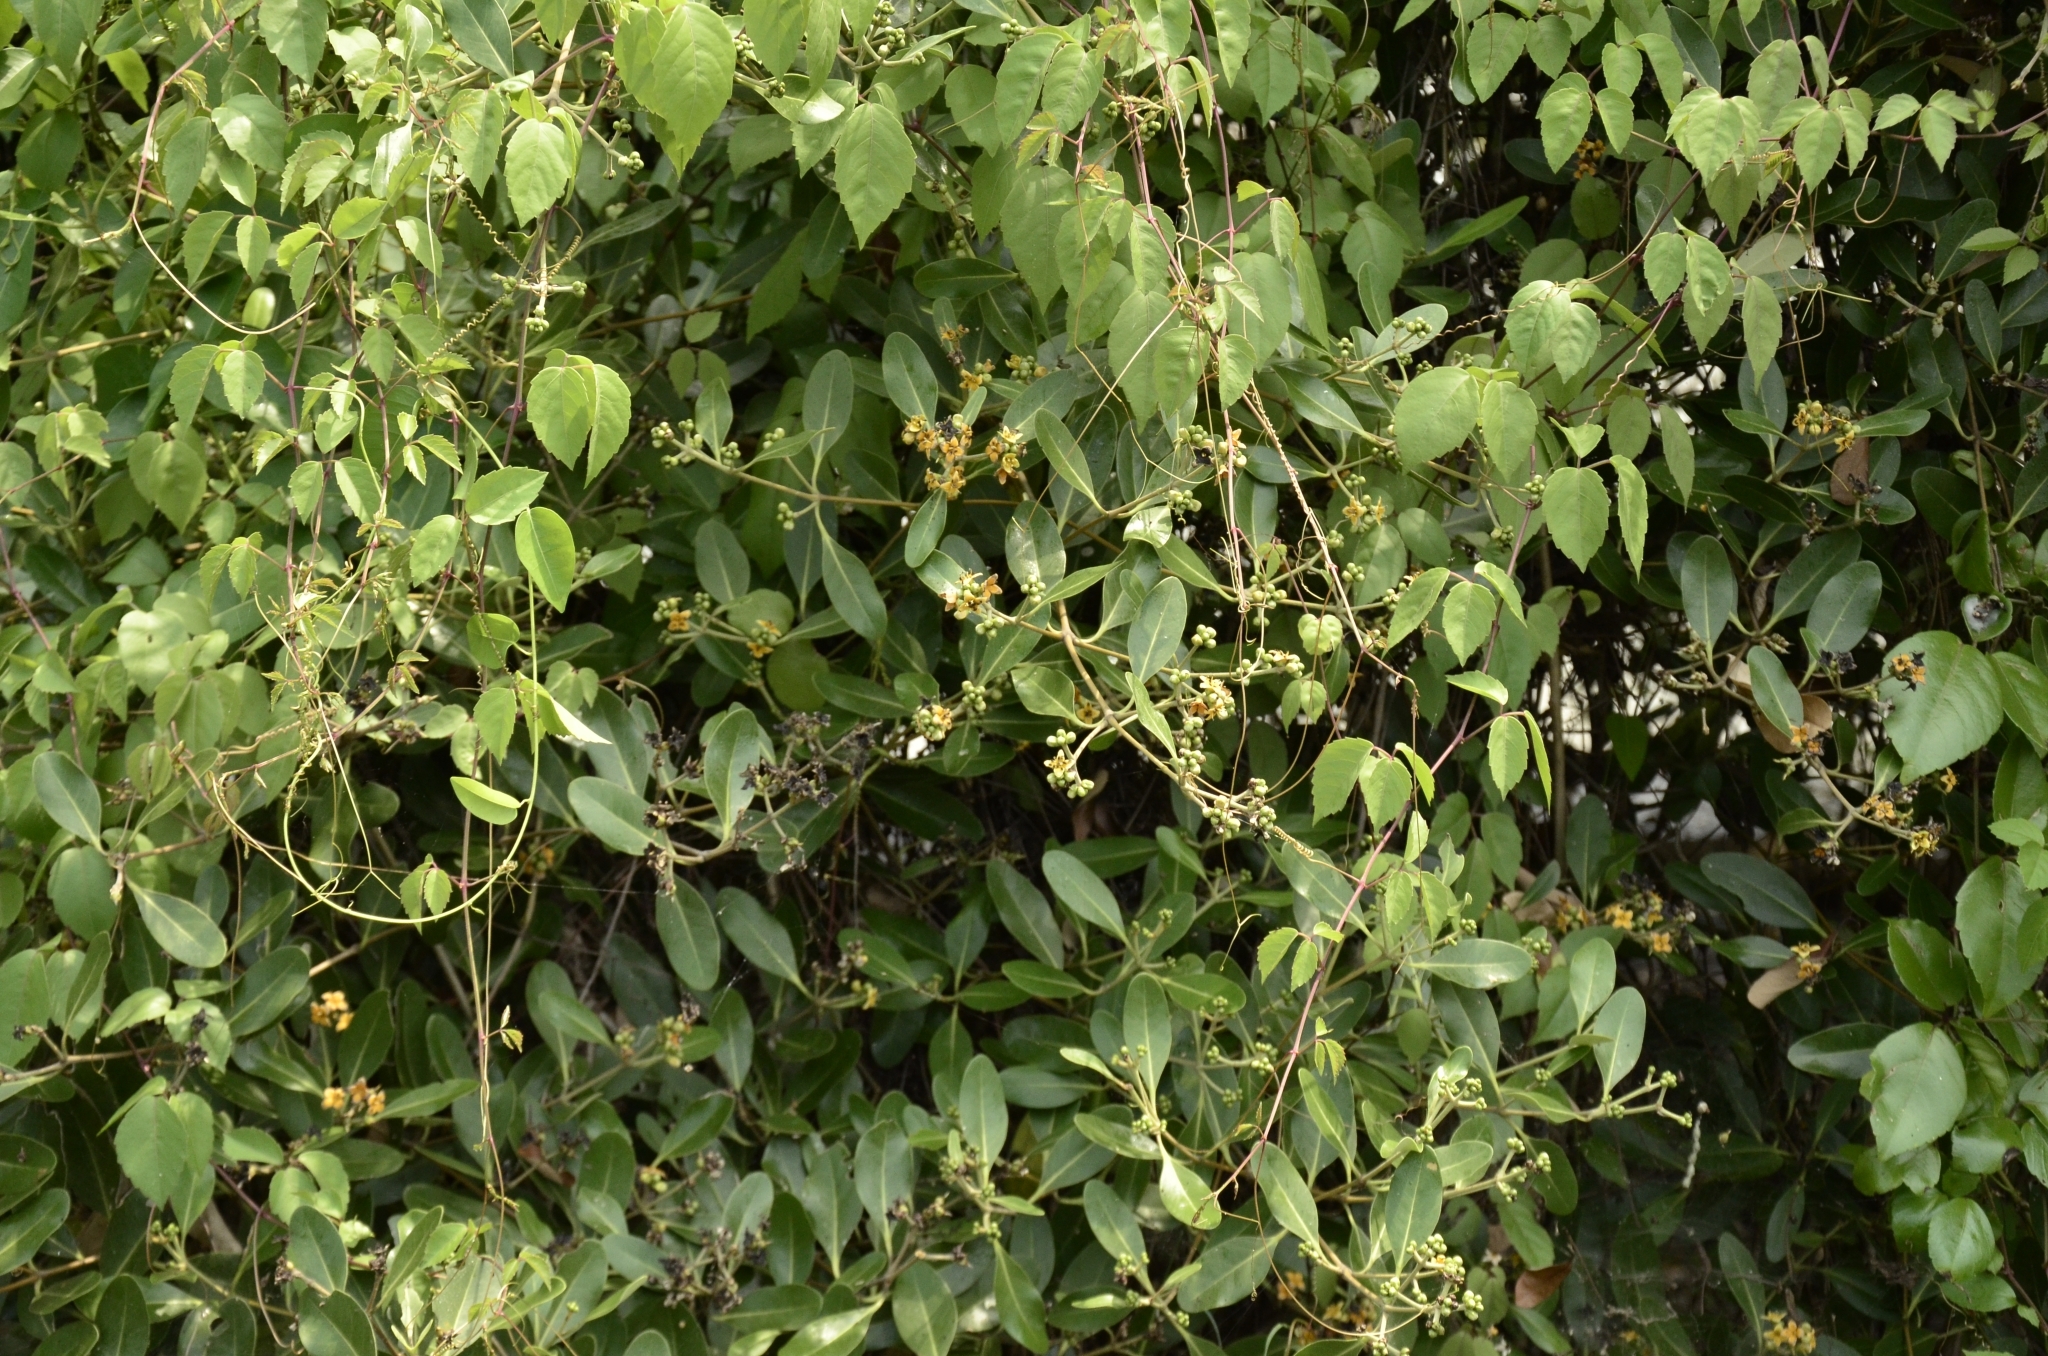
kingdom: Plantae
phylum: Tracheophyta
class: Magnoliopsida
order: Lamiales
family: Acanthaceae
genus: Avicennia
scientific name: Avicennia marina
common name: Gray mangrove
